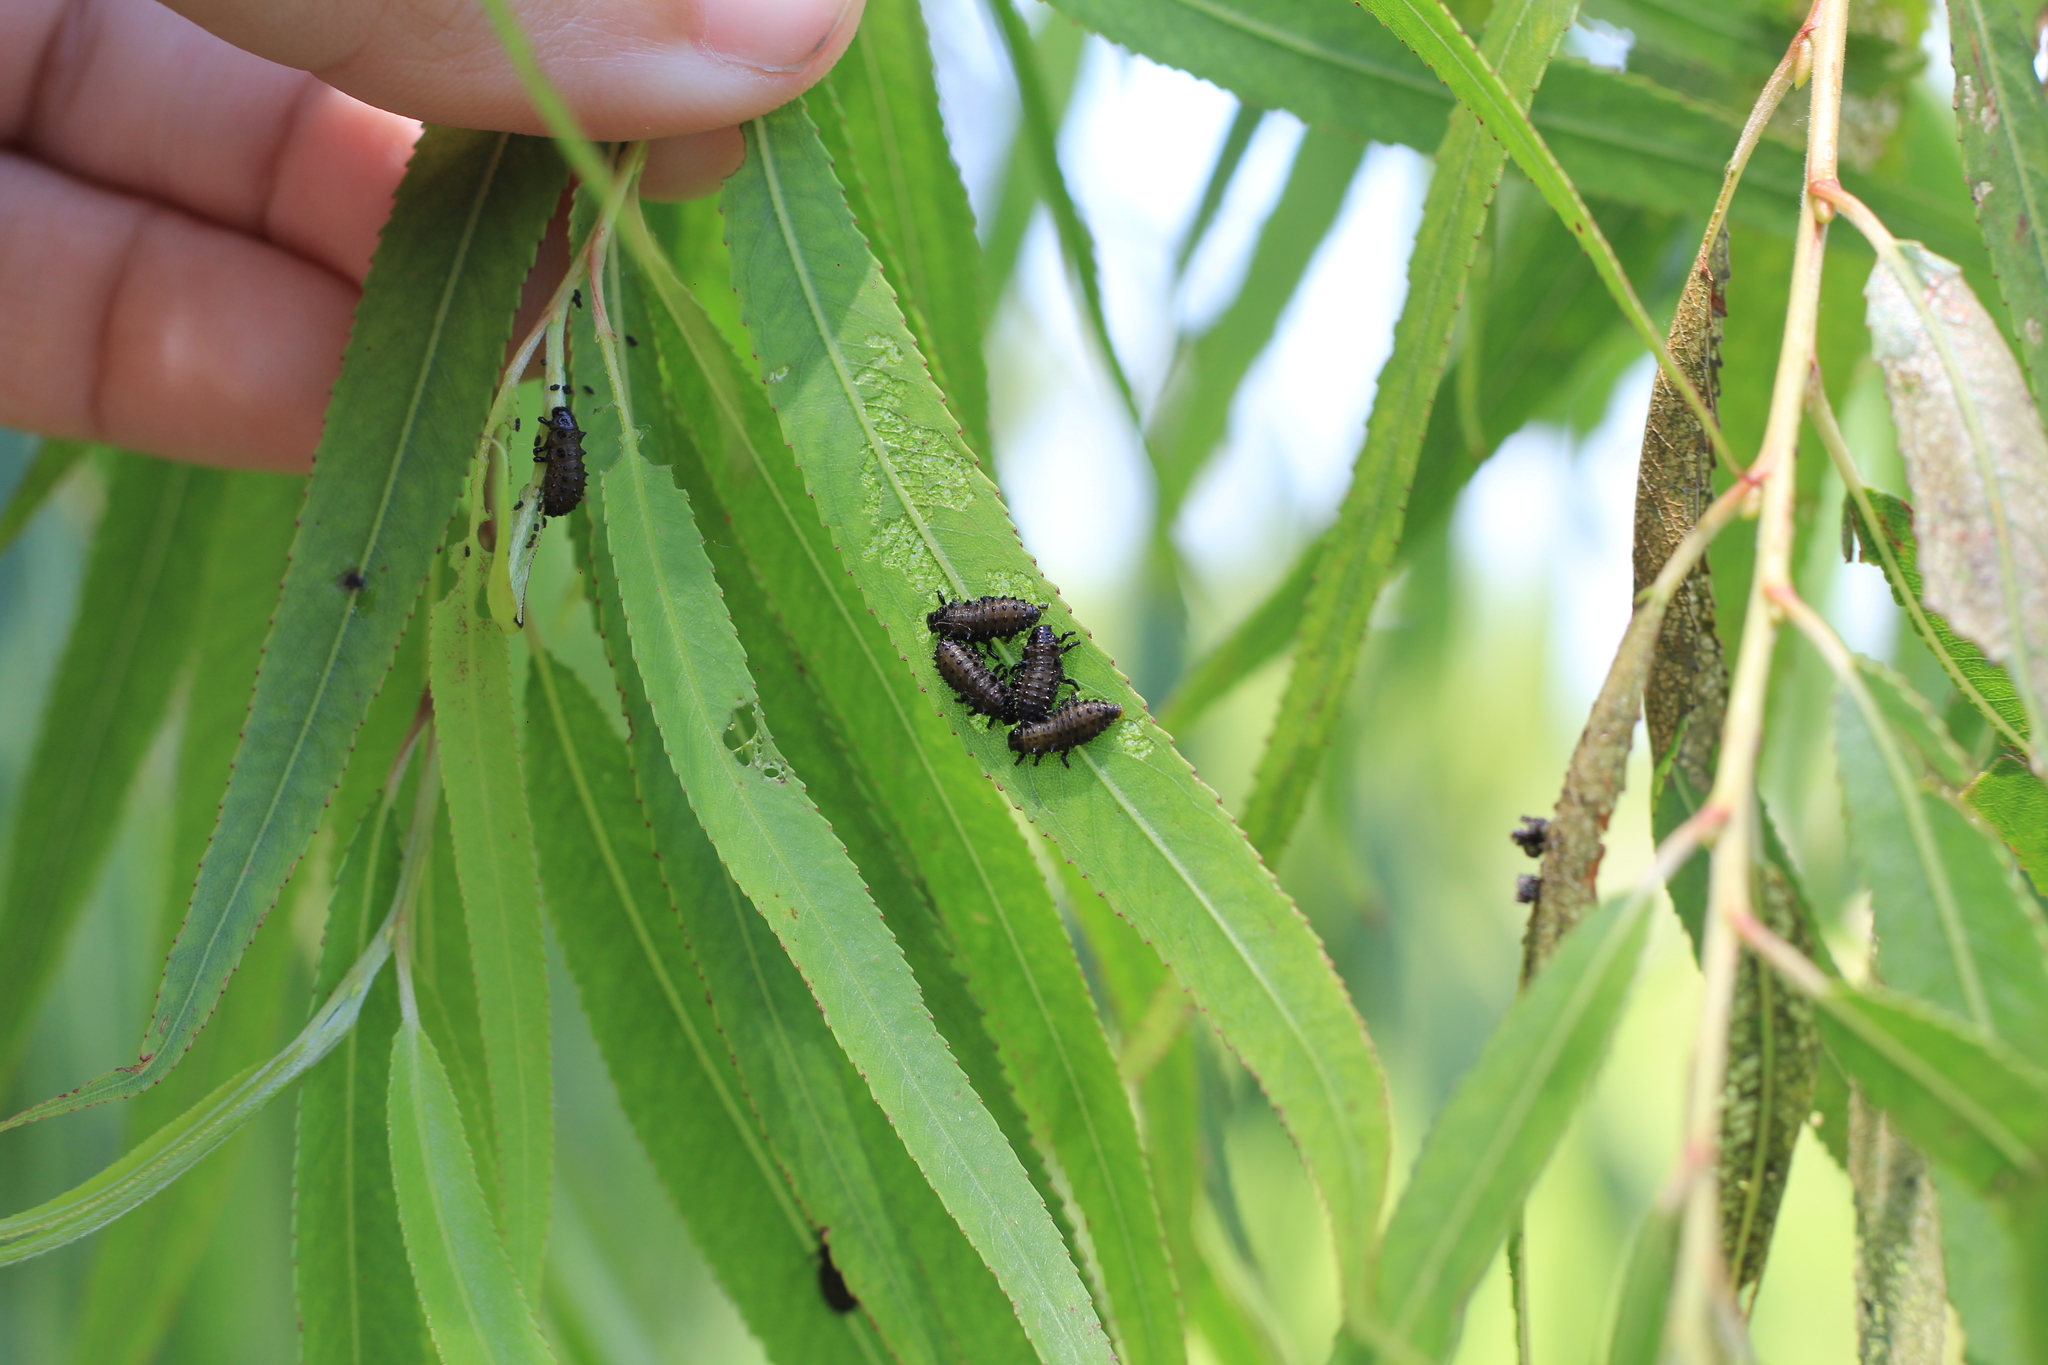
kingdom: Animalia
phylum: Arthropoda
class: Insecta
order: Coleoptera
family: Chrysomelidae
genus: Plagiodera
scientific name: Plagiodera
